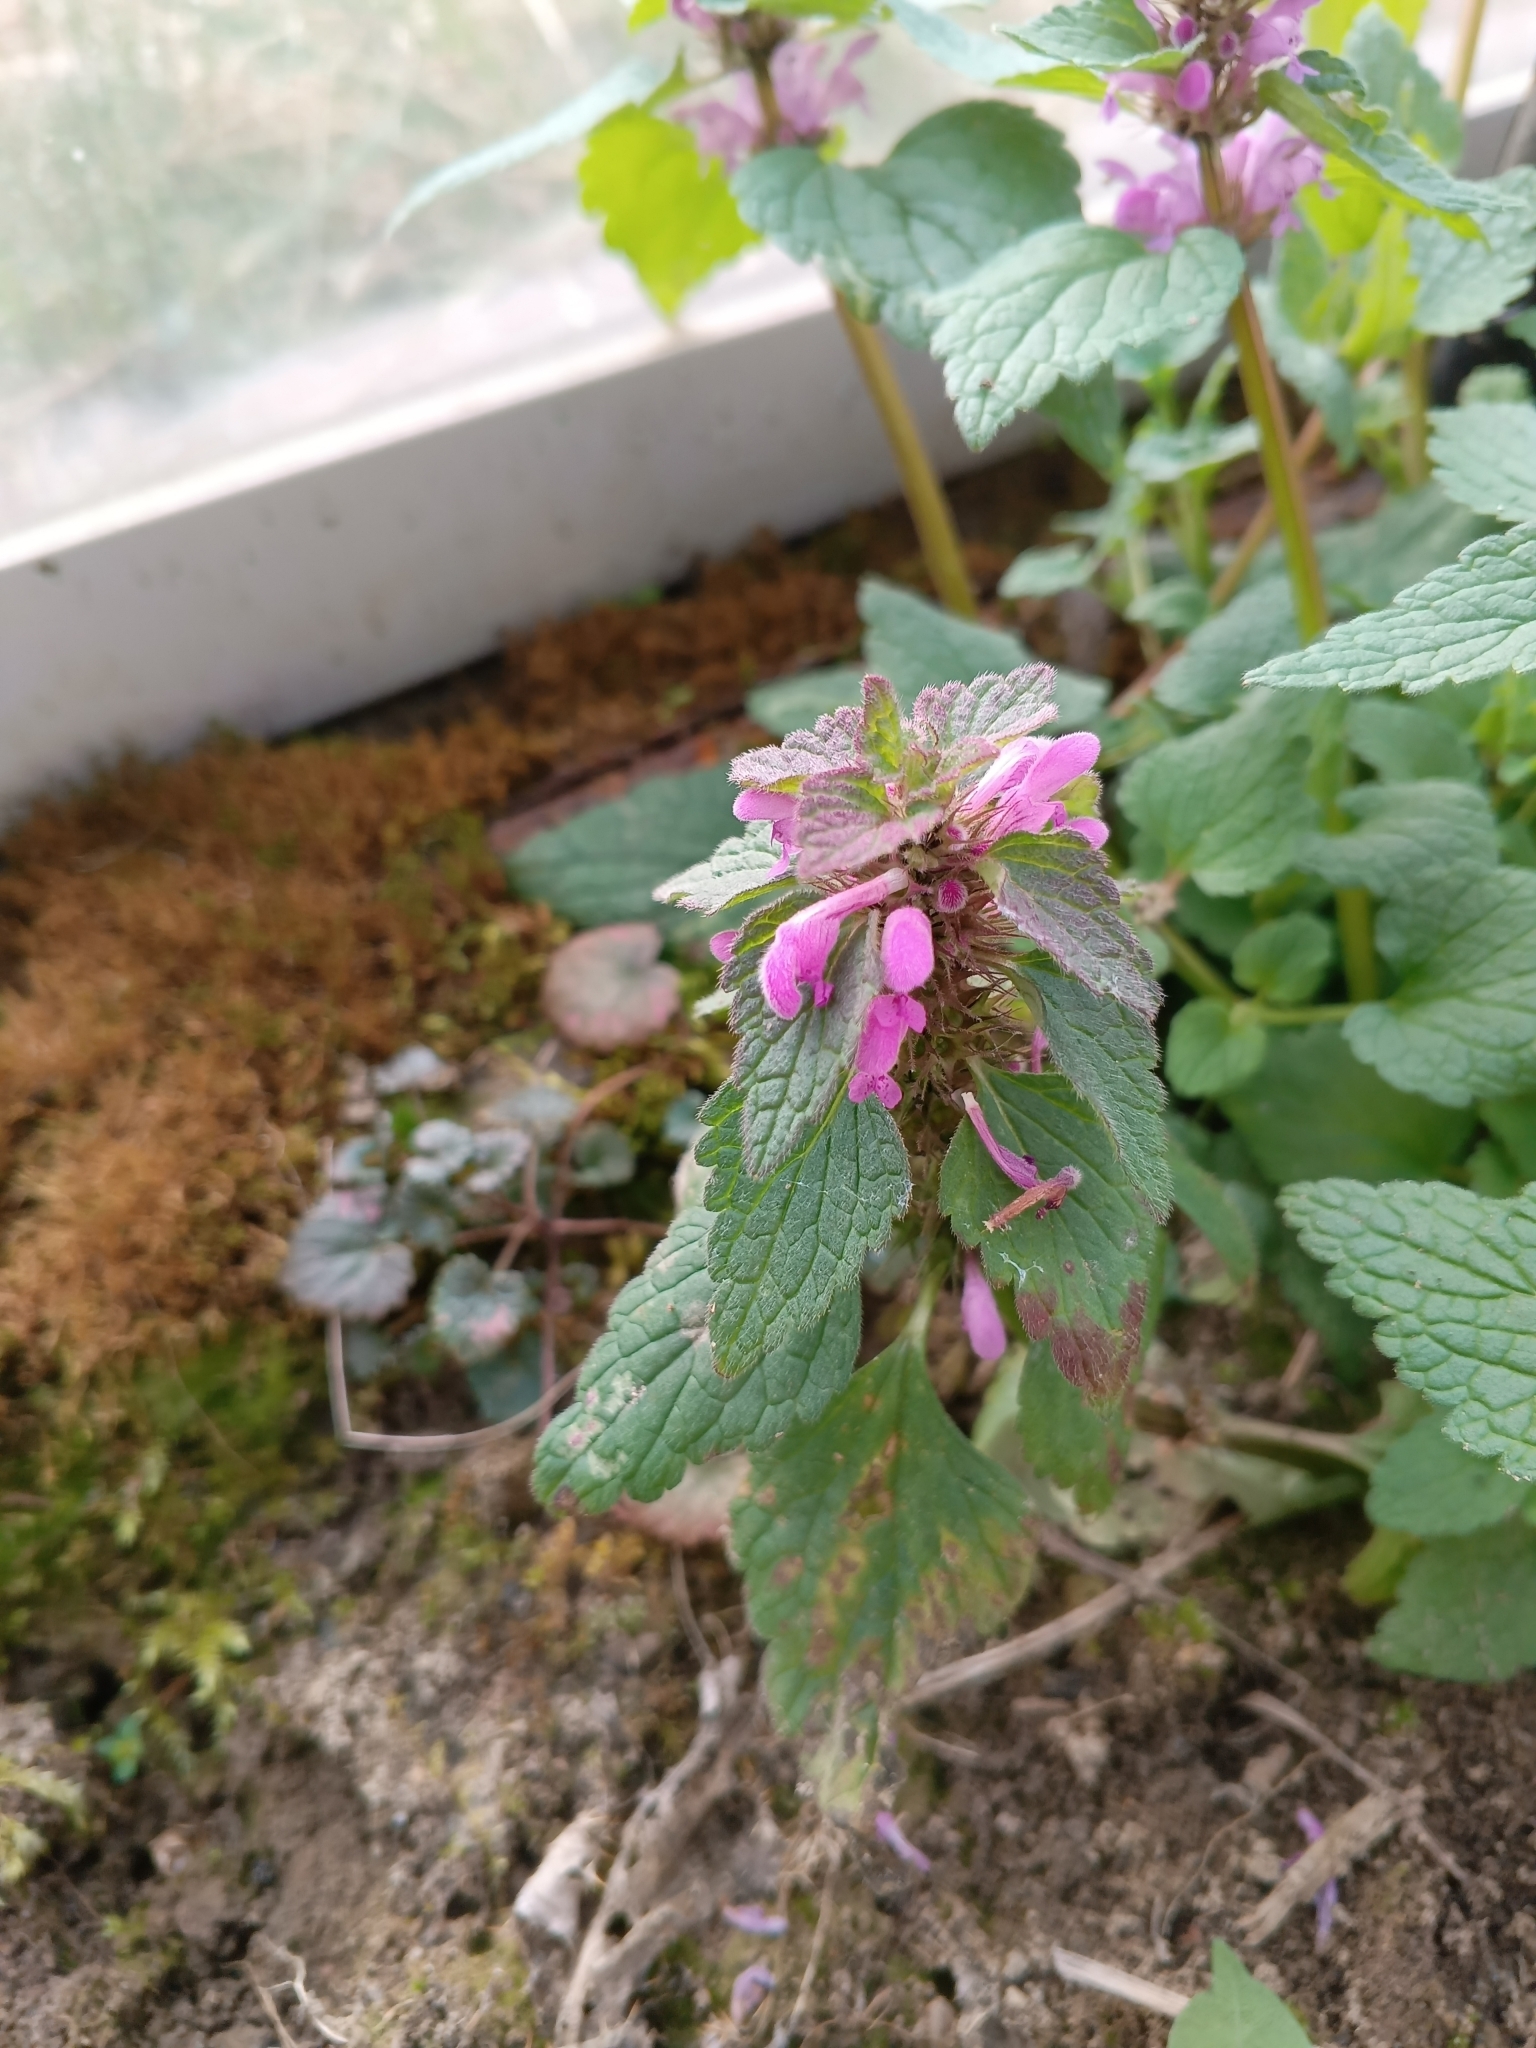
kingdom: Plantae
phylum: Tracheophyta
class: Magnoliopsida
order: Lamiales
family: Lamiaceae
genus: Lamium
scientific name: Lamium purpureum
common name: Red dead-nettle
